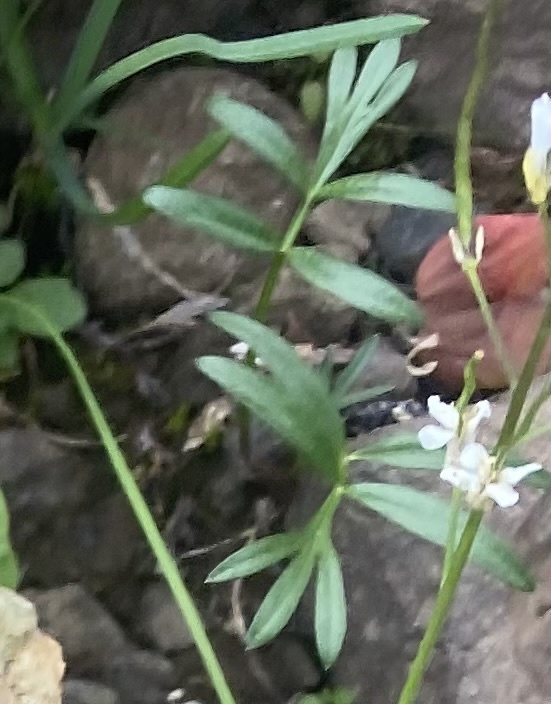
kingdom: Plantae
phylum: Tracheophyta
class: Magnoliopsida
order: Apiales
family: Apiaceae
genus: Pachypleurum
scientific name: Pachypleurum mutellinoides
